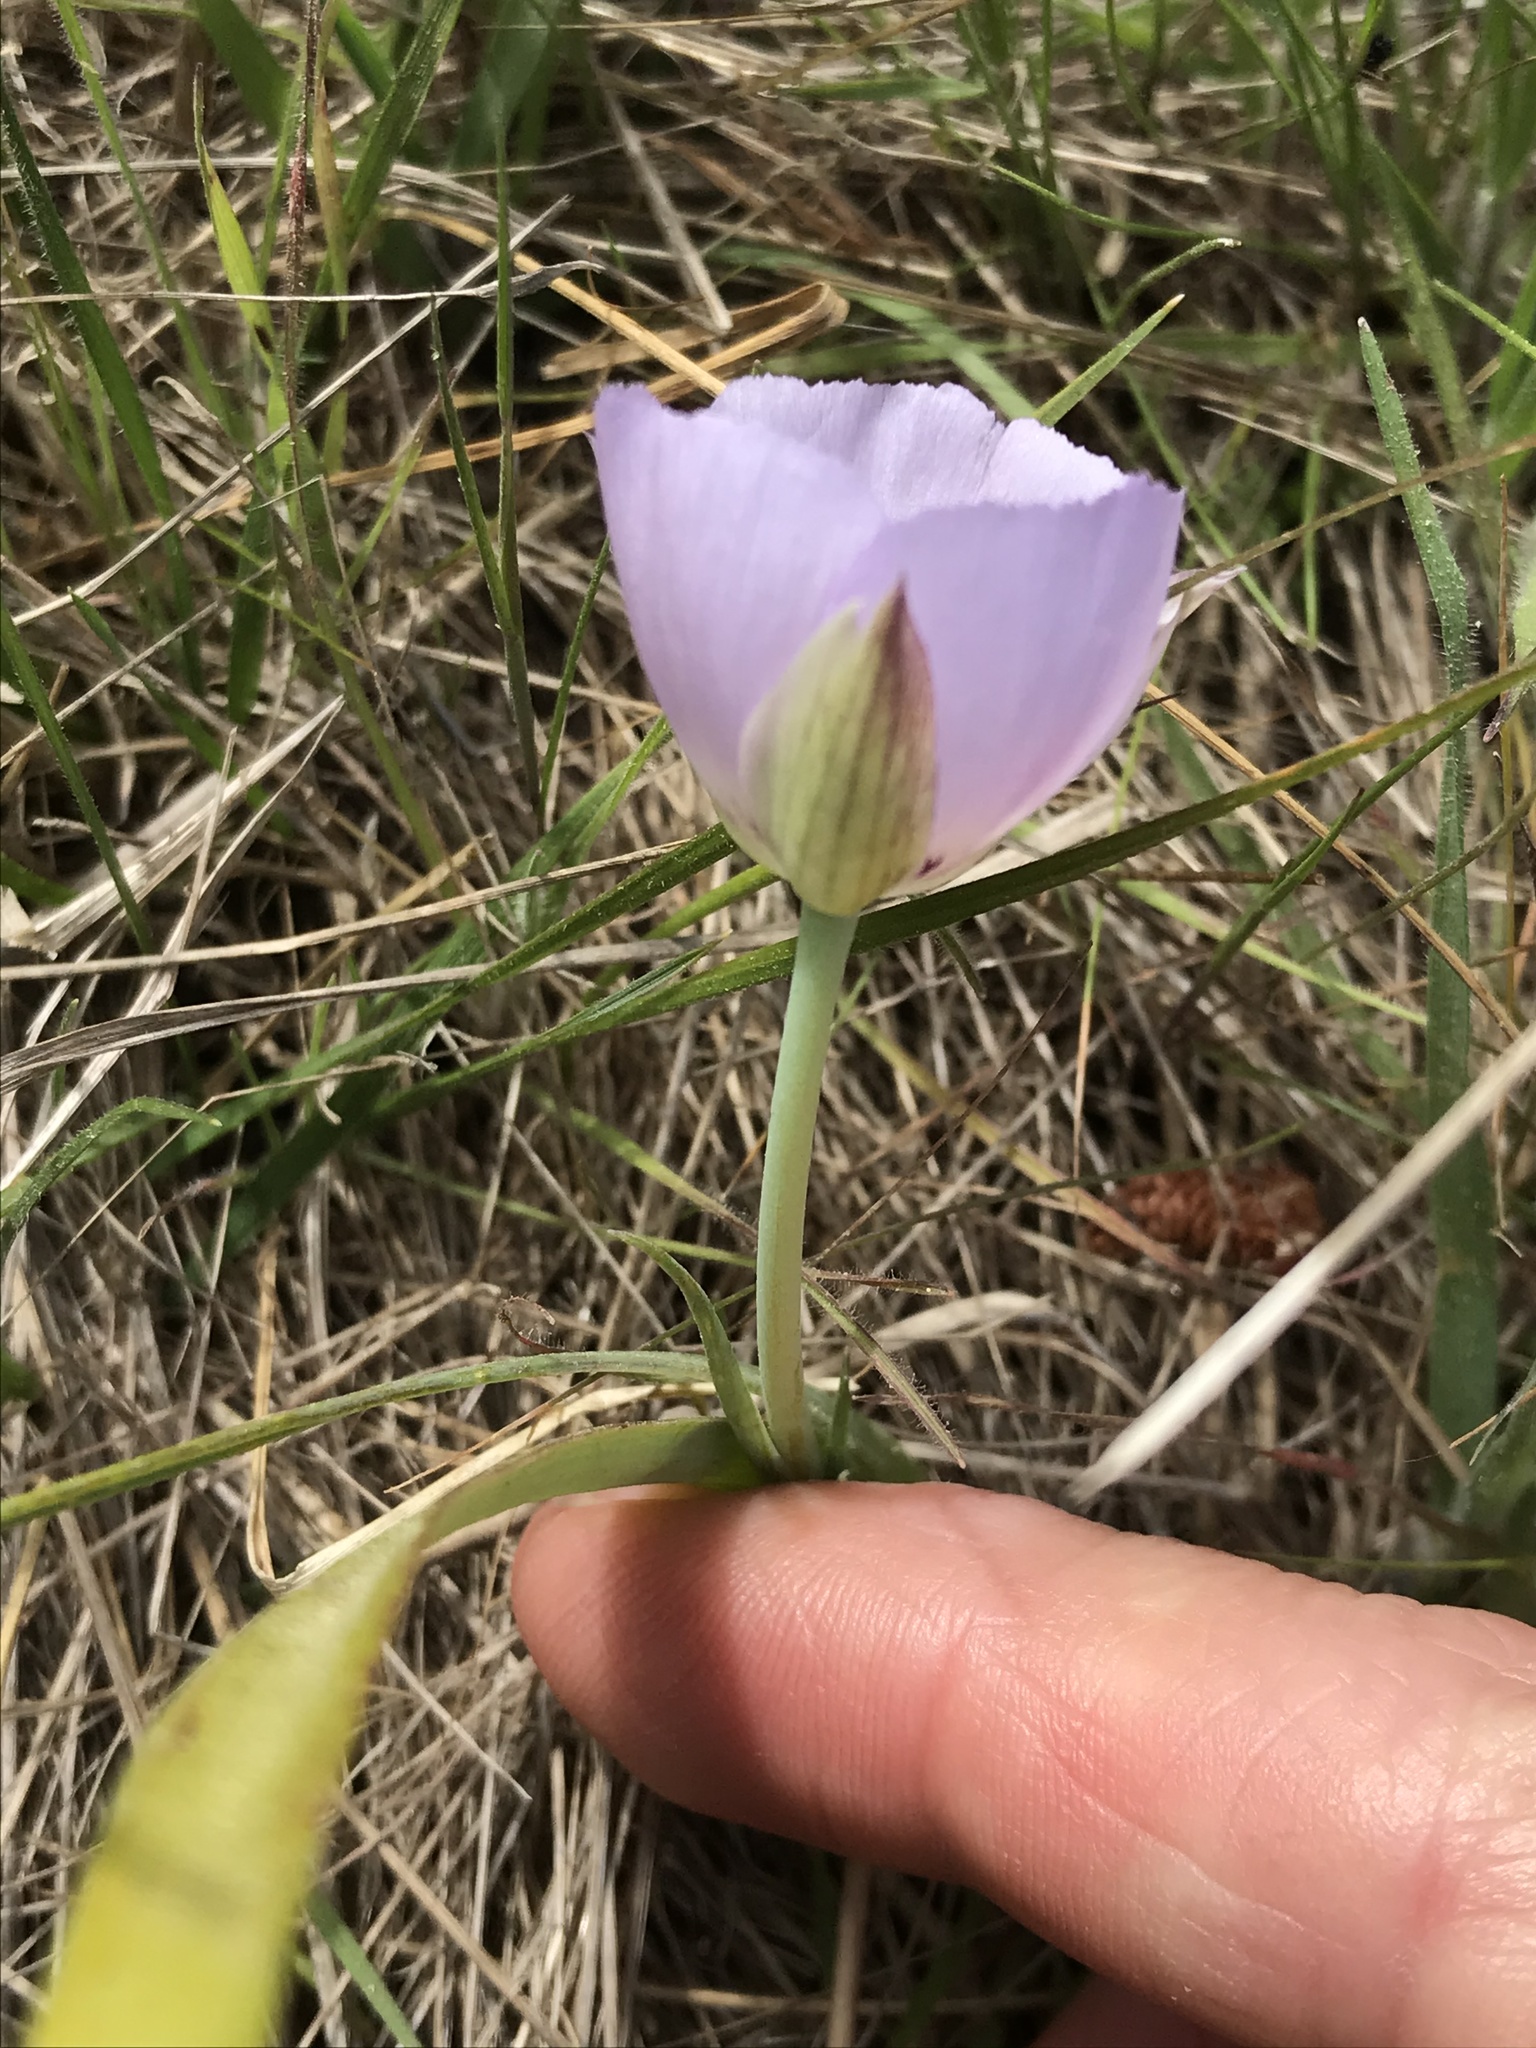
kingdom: Plantae
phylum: Tracheophyta
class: Liliopsida
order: Liliales
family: Liliaceae
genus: Calochortus
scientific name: Calochortus uniflorus
